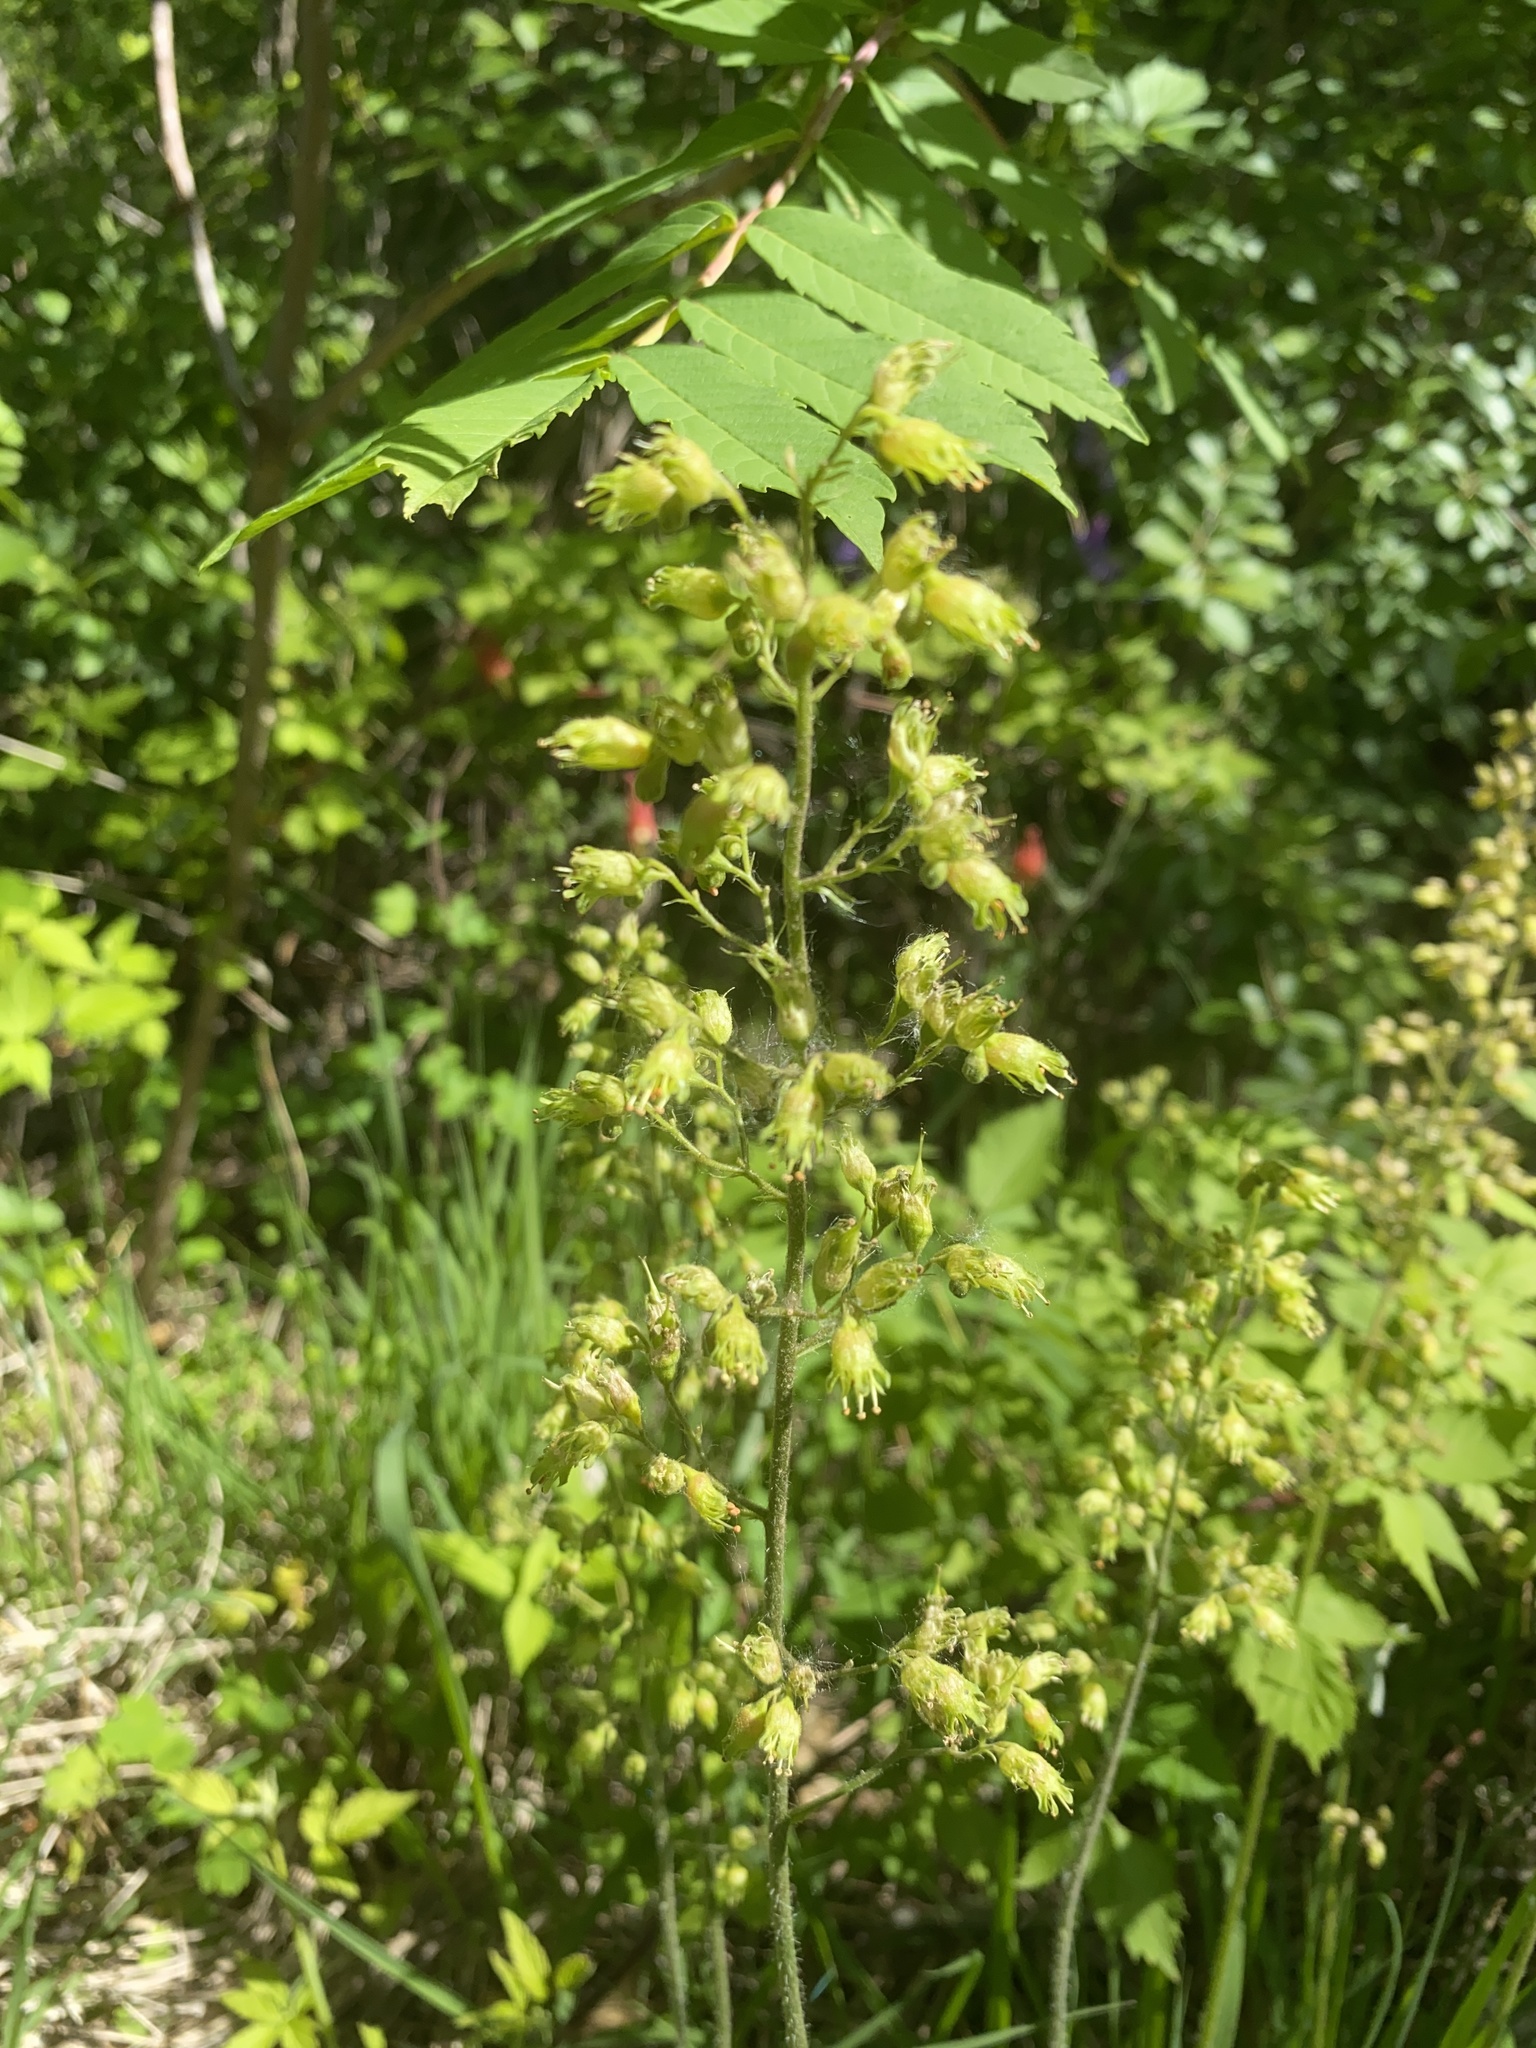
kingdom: Plantae
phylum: Tracheophyta
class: Magnoliopsida
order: Saxifragales
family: Saxifragaceae
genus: Heuchera
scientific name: Heuchera richardsonii
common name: Richardson's alumroot
